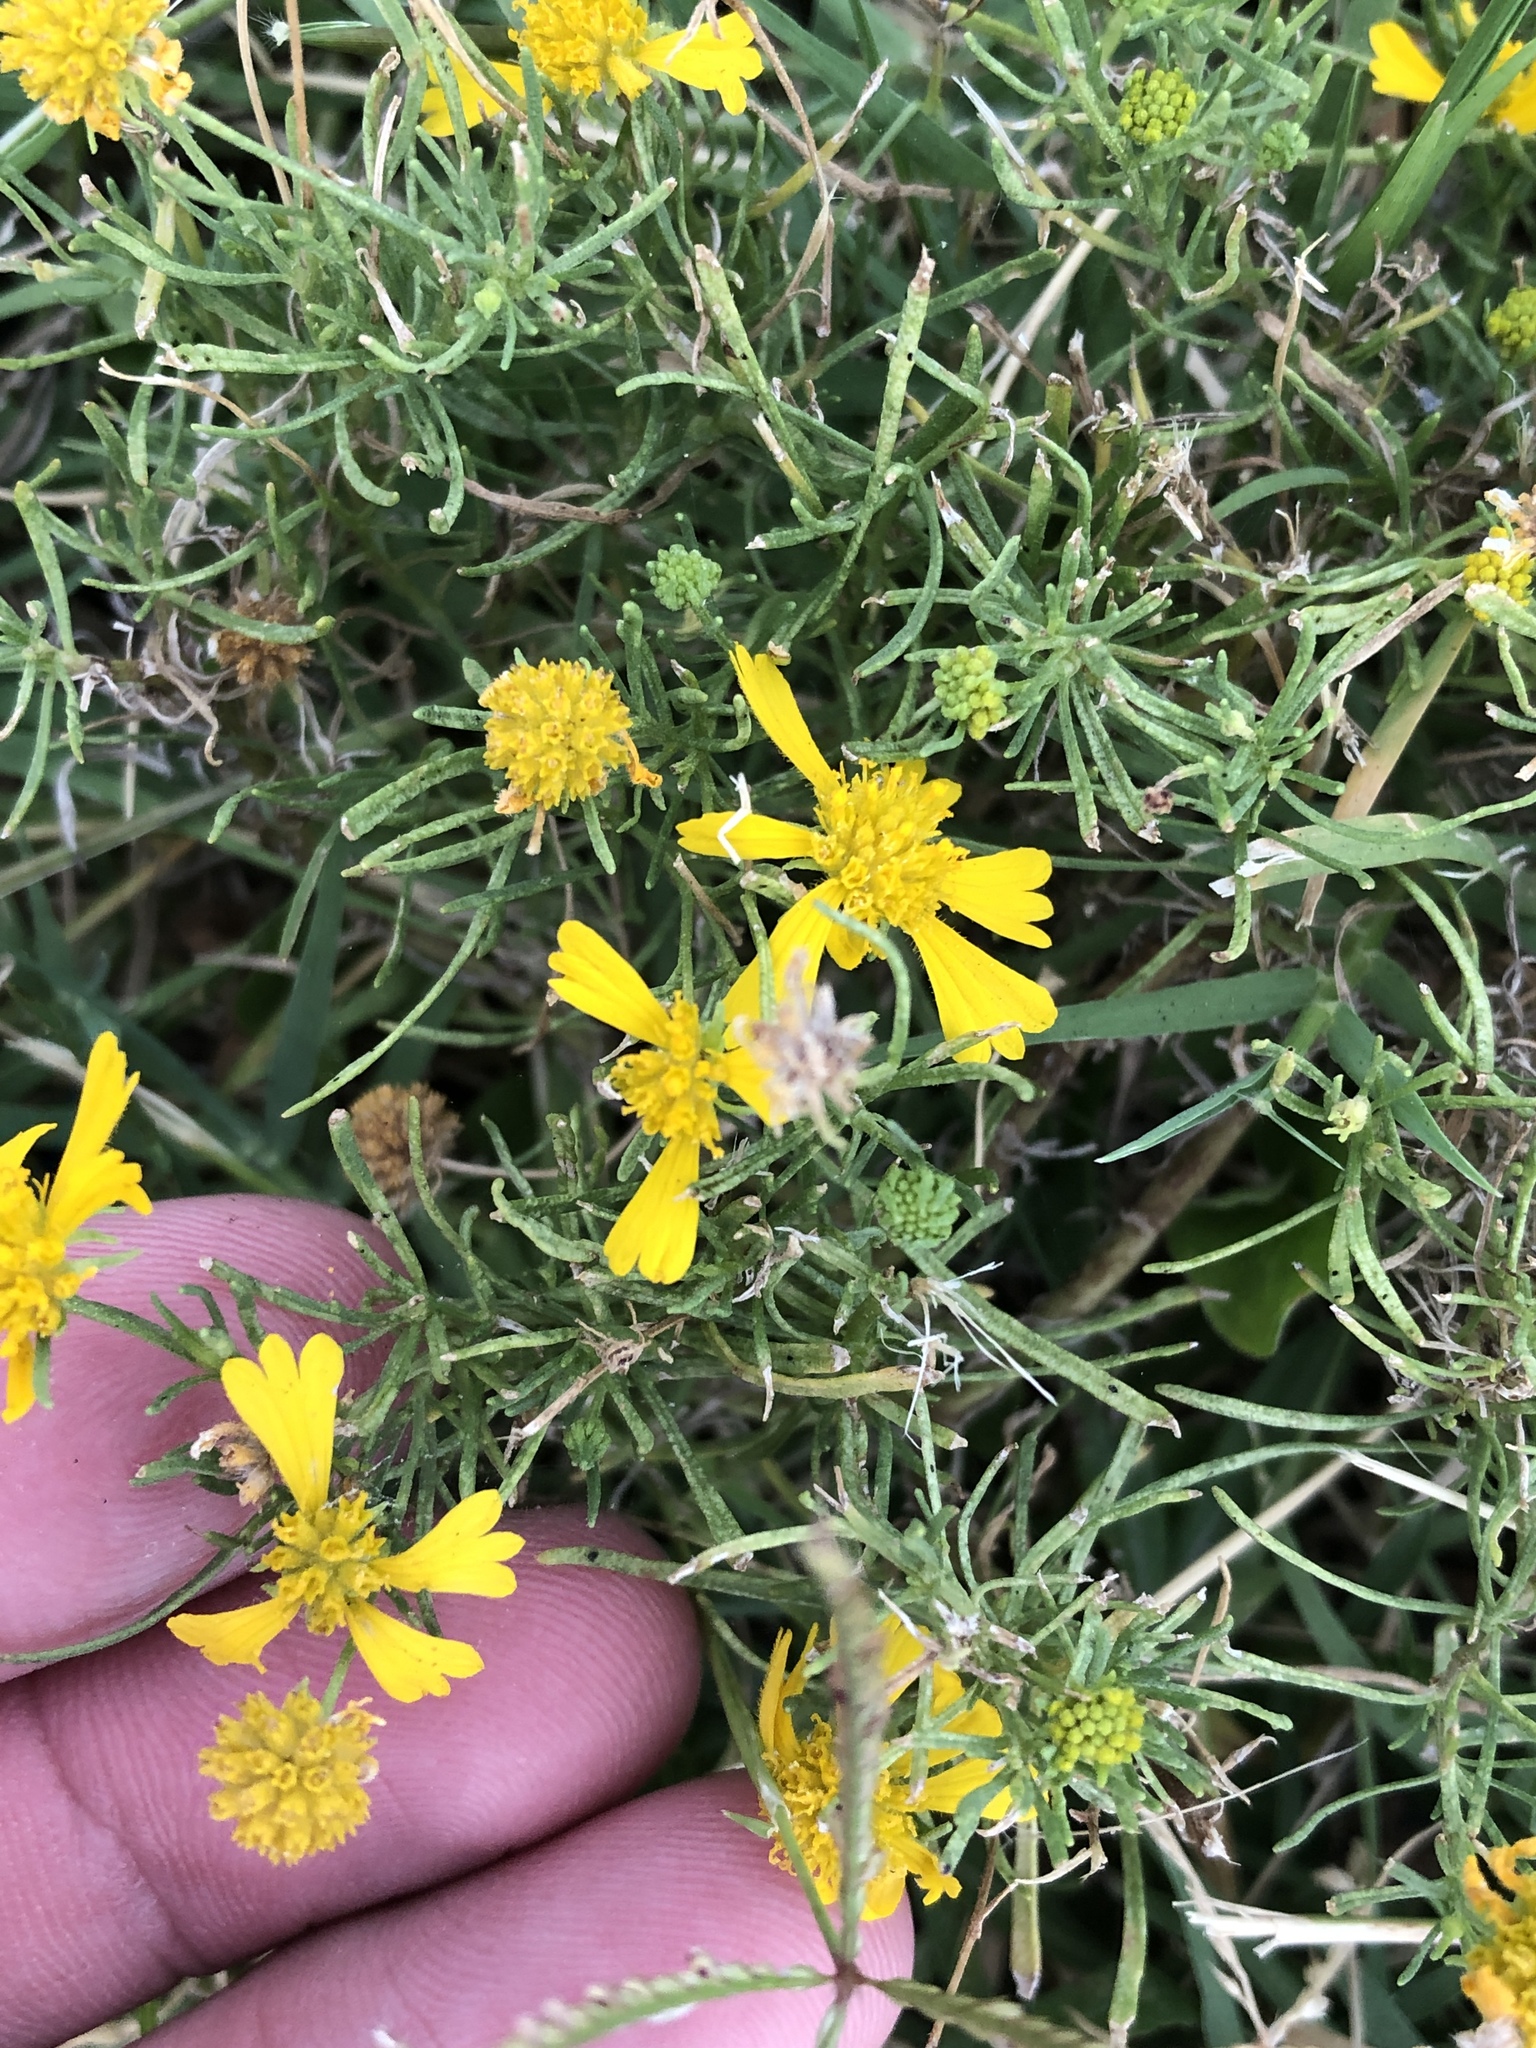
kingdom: Plantae
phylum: Tracheophyta
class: Magnoliopsida
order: Asterales
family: Asteraceae
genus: Helenium
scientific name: Helenium amarum
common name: Bitter sneezeweed
